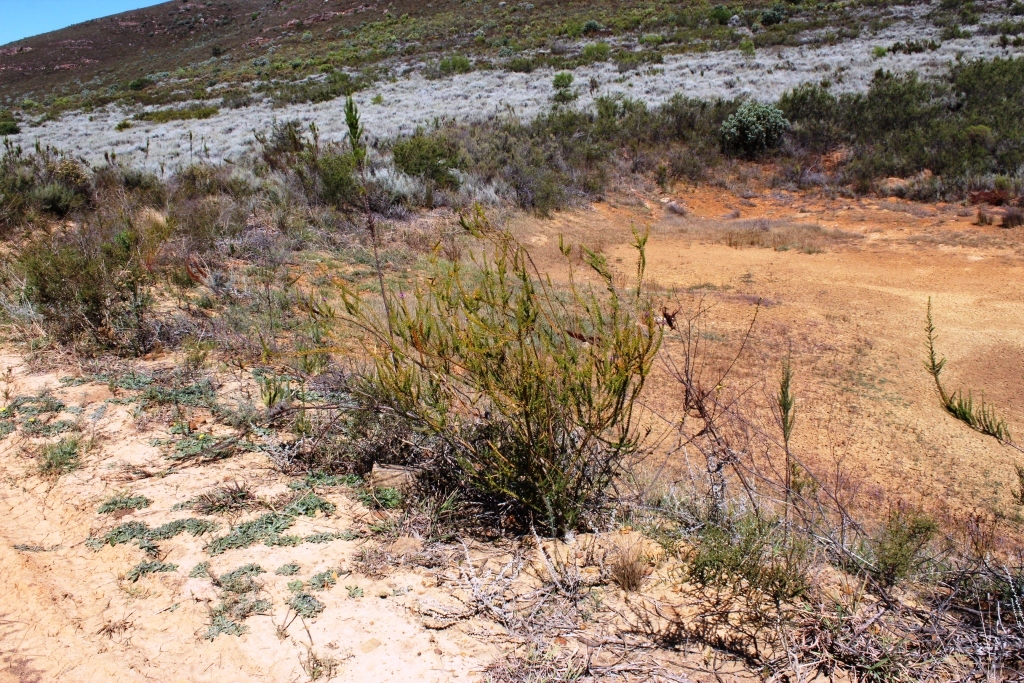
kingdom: Plantae
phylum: Tracheophyta
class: Magnoliopsida
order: Fabales
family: Polygalaceae
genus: Muraltia
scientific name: Muraltia heisteria
